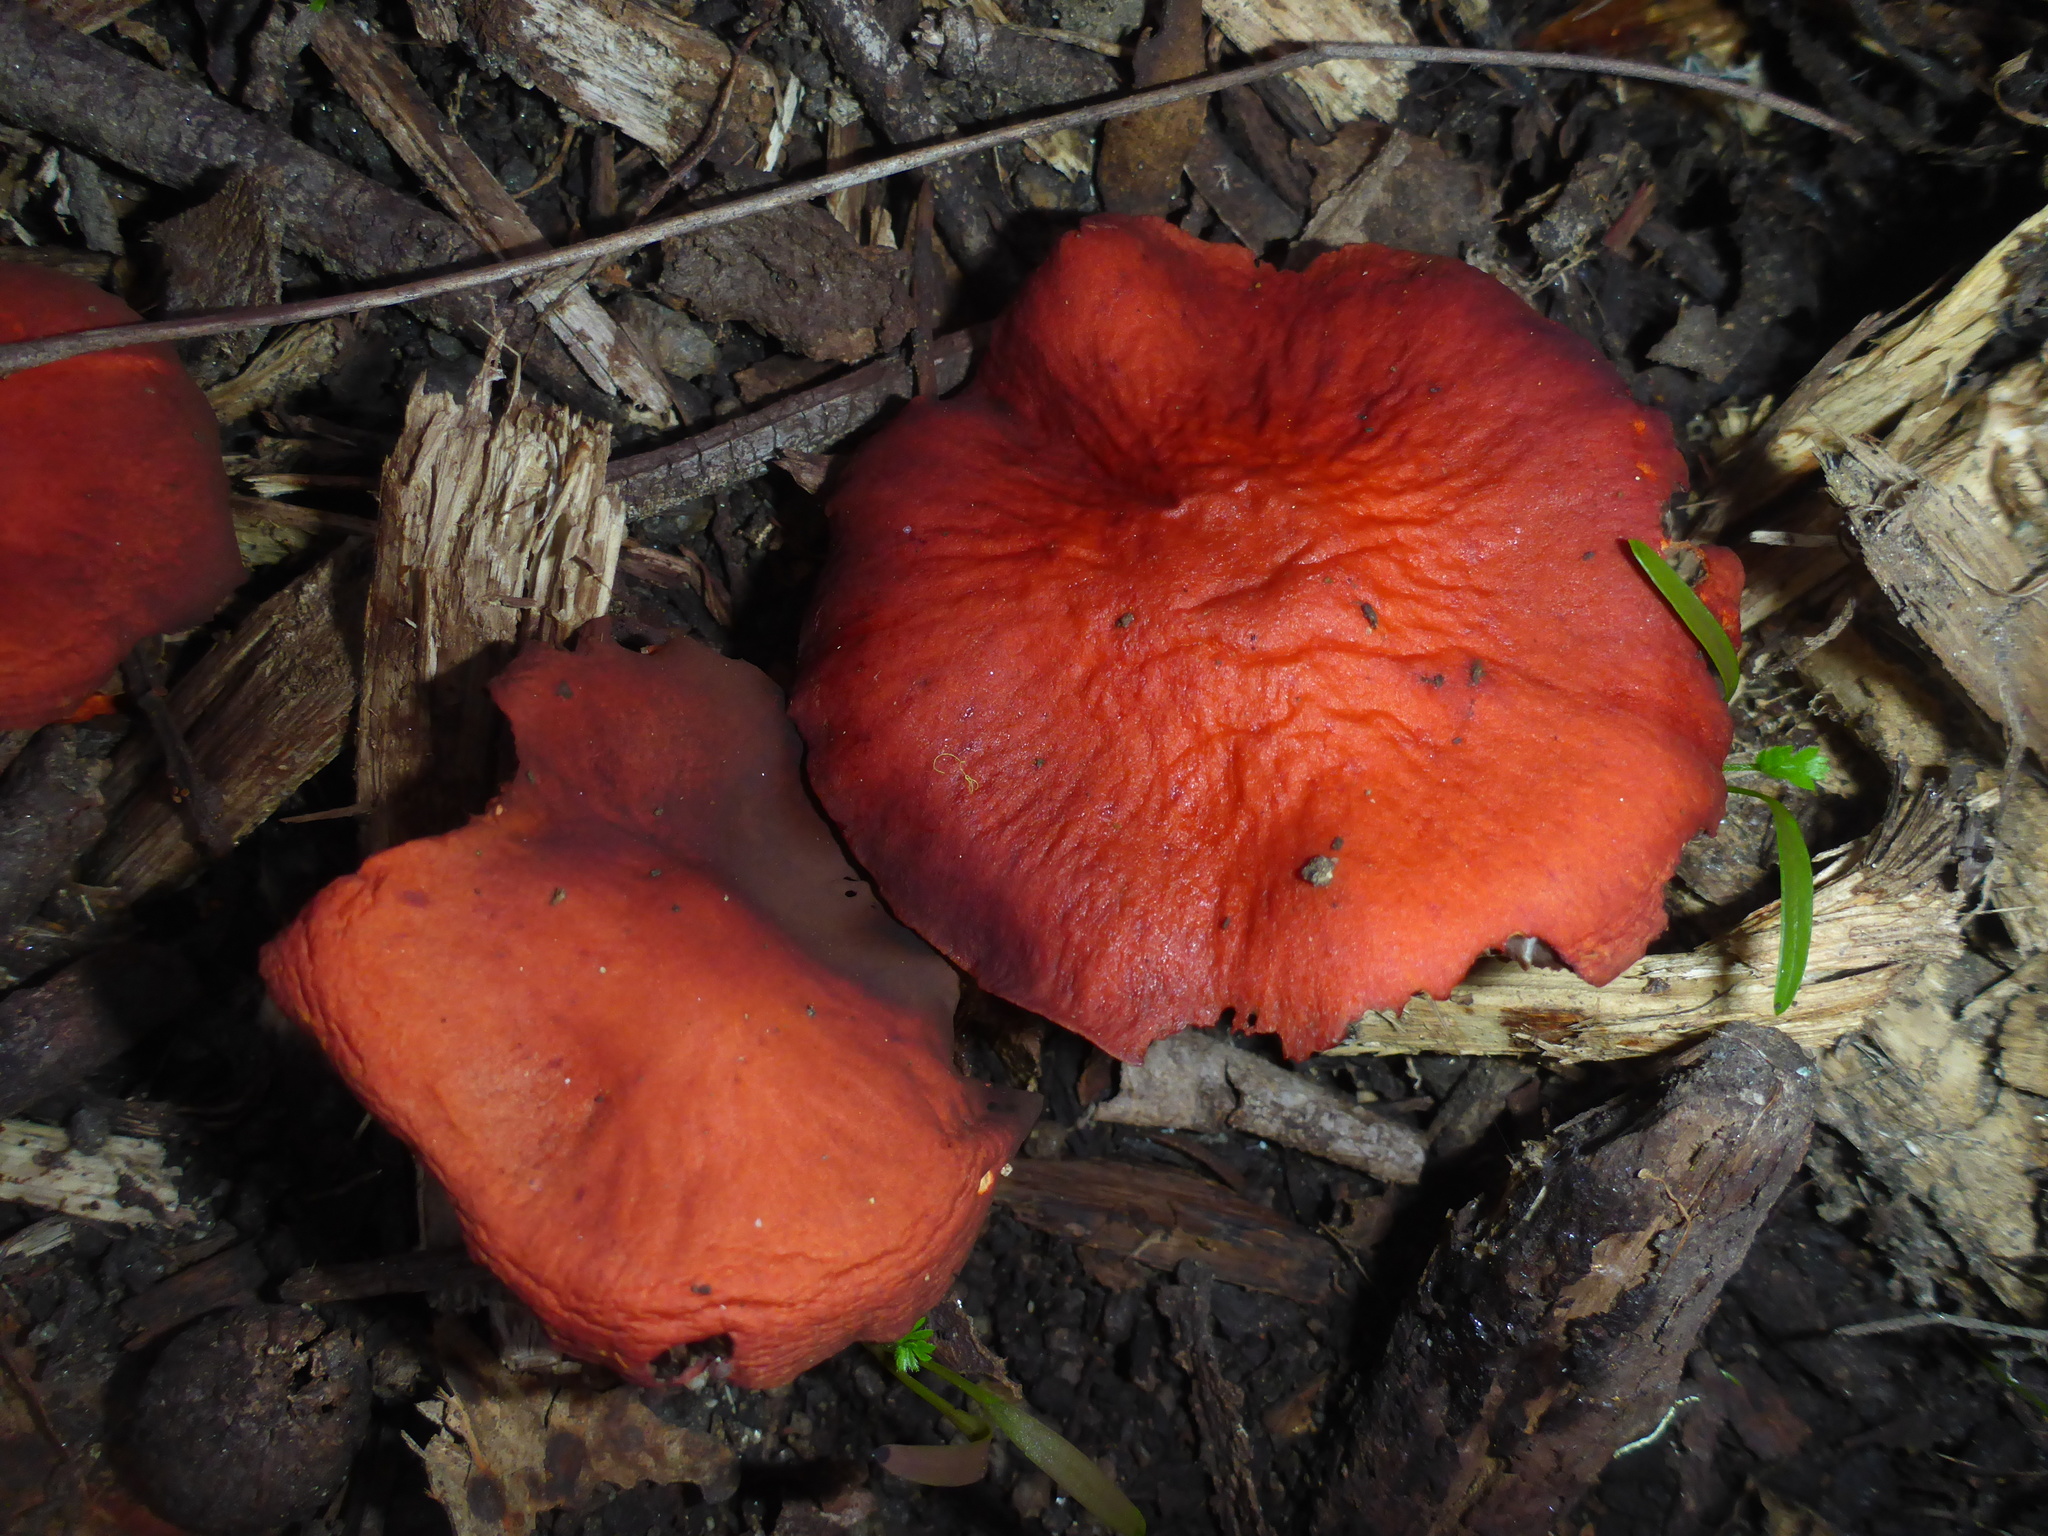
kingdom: Fungi
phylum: Basidiomycota
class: Agaricomycetes
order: Agaricales
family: Strophariaceae
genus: Leratiomyces
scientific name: Leratiomyces ceres
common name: Redlead roundhead
